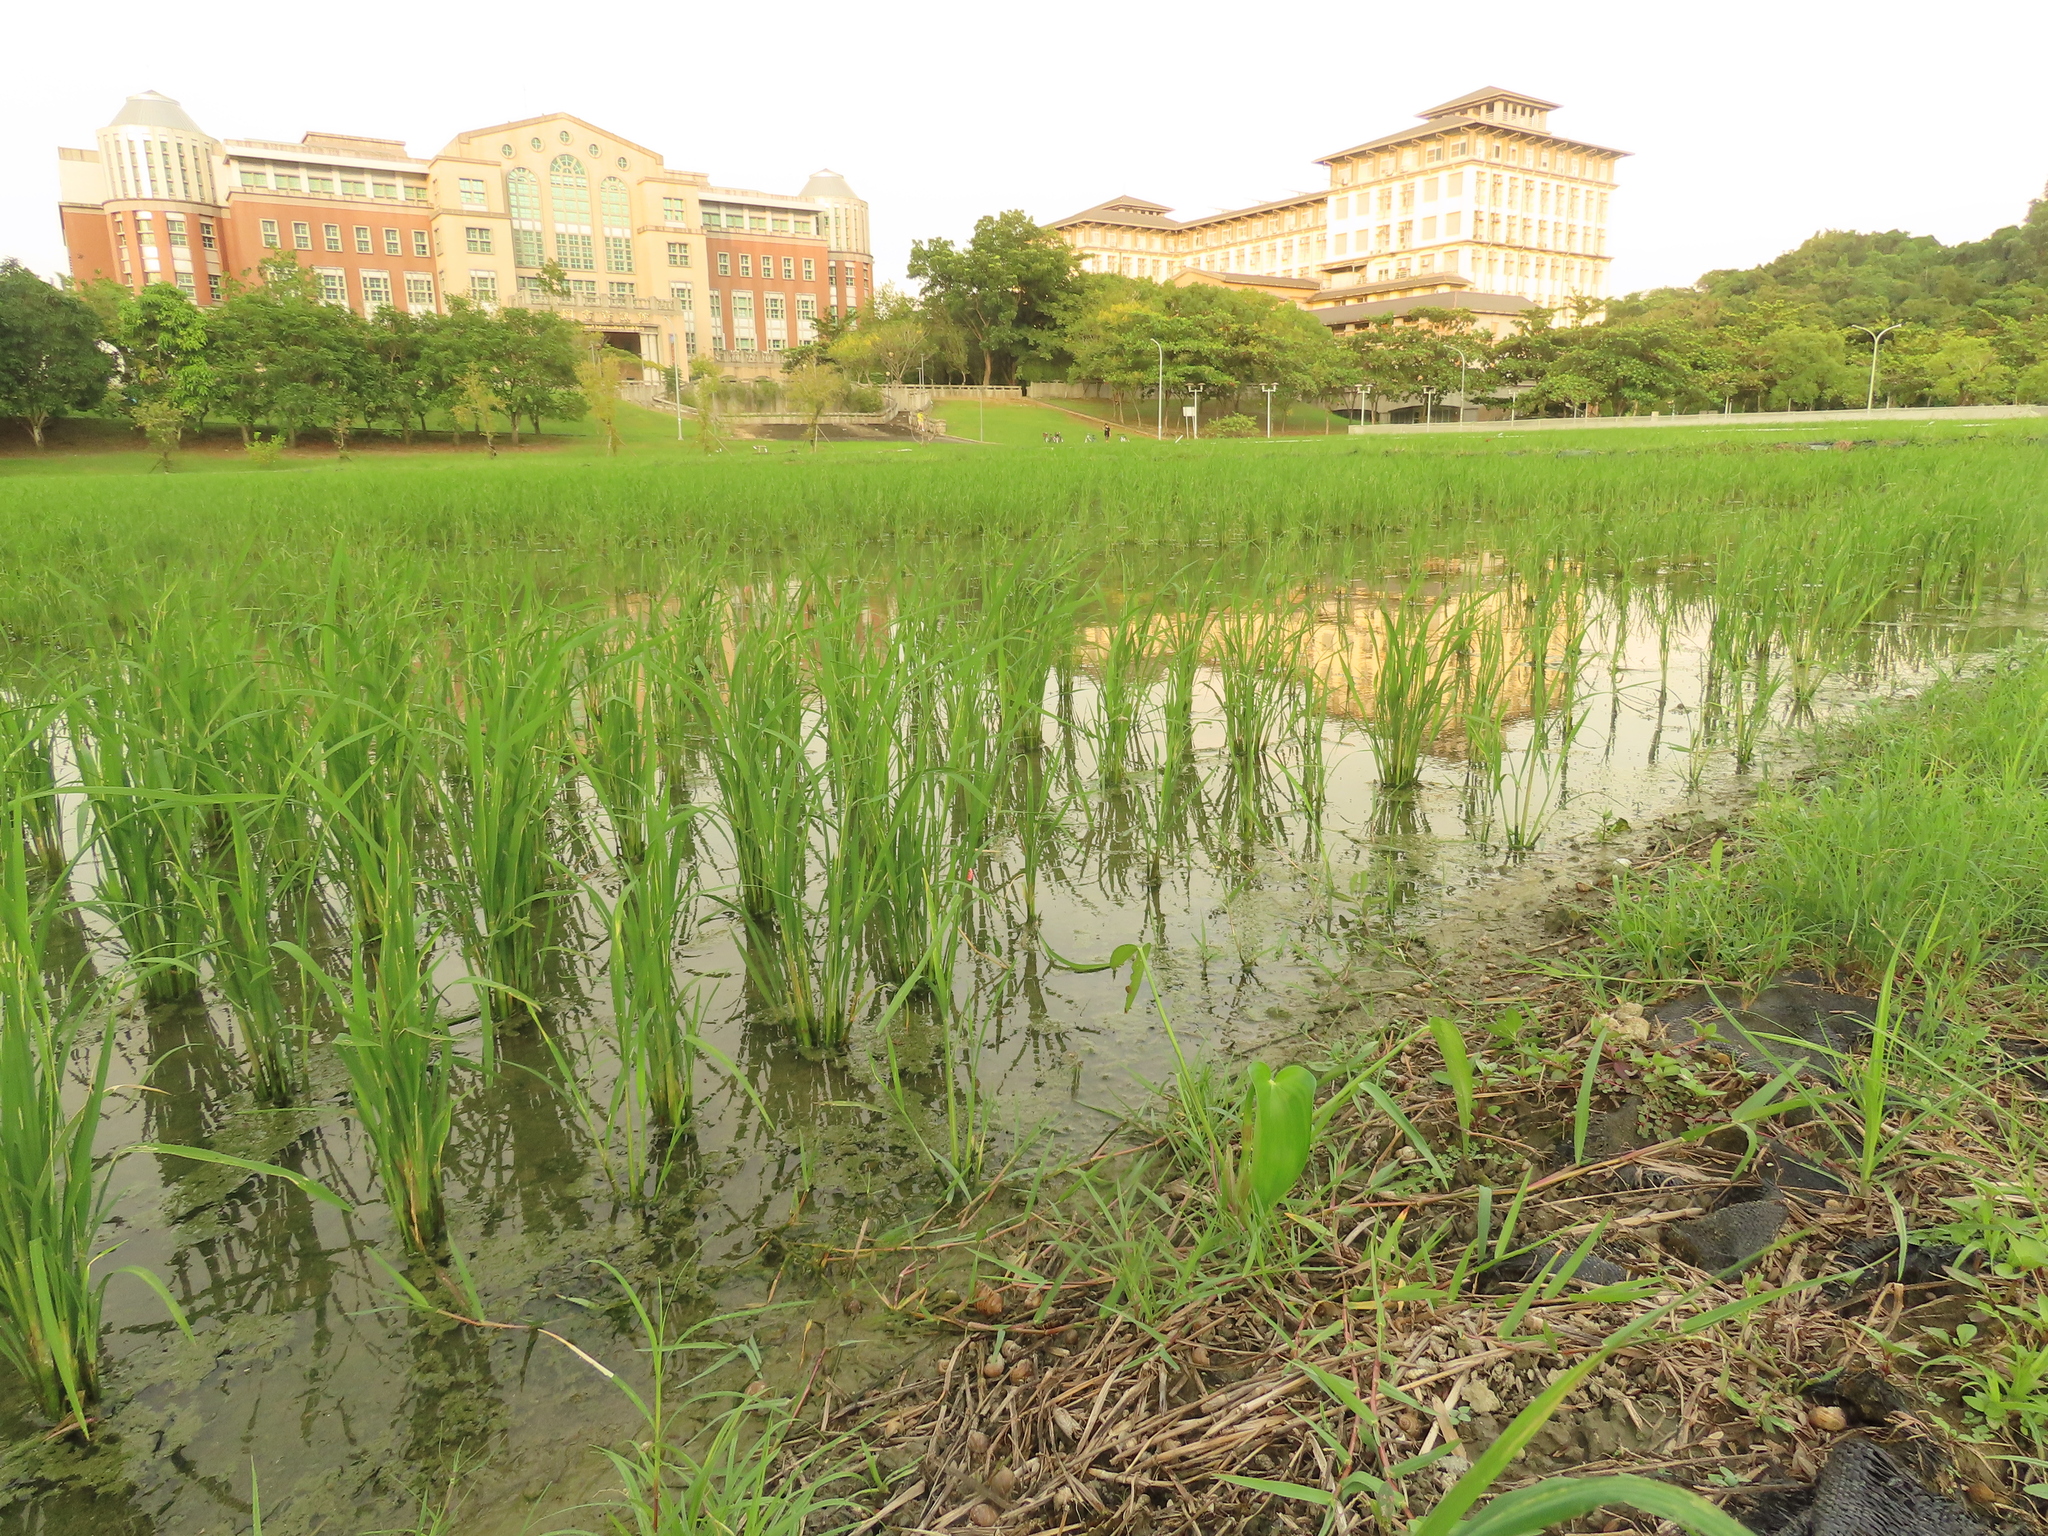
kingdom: Plantae
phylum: Tracheophyta
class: Liliopsida
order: Commelinales
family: Pontederiaceae
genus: Pontederia
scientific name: Pontederia vaginalis
